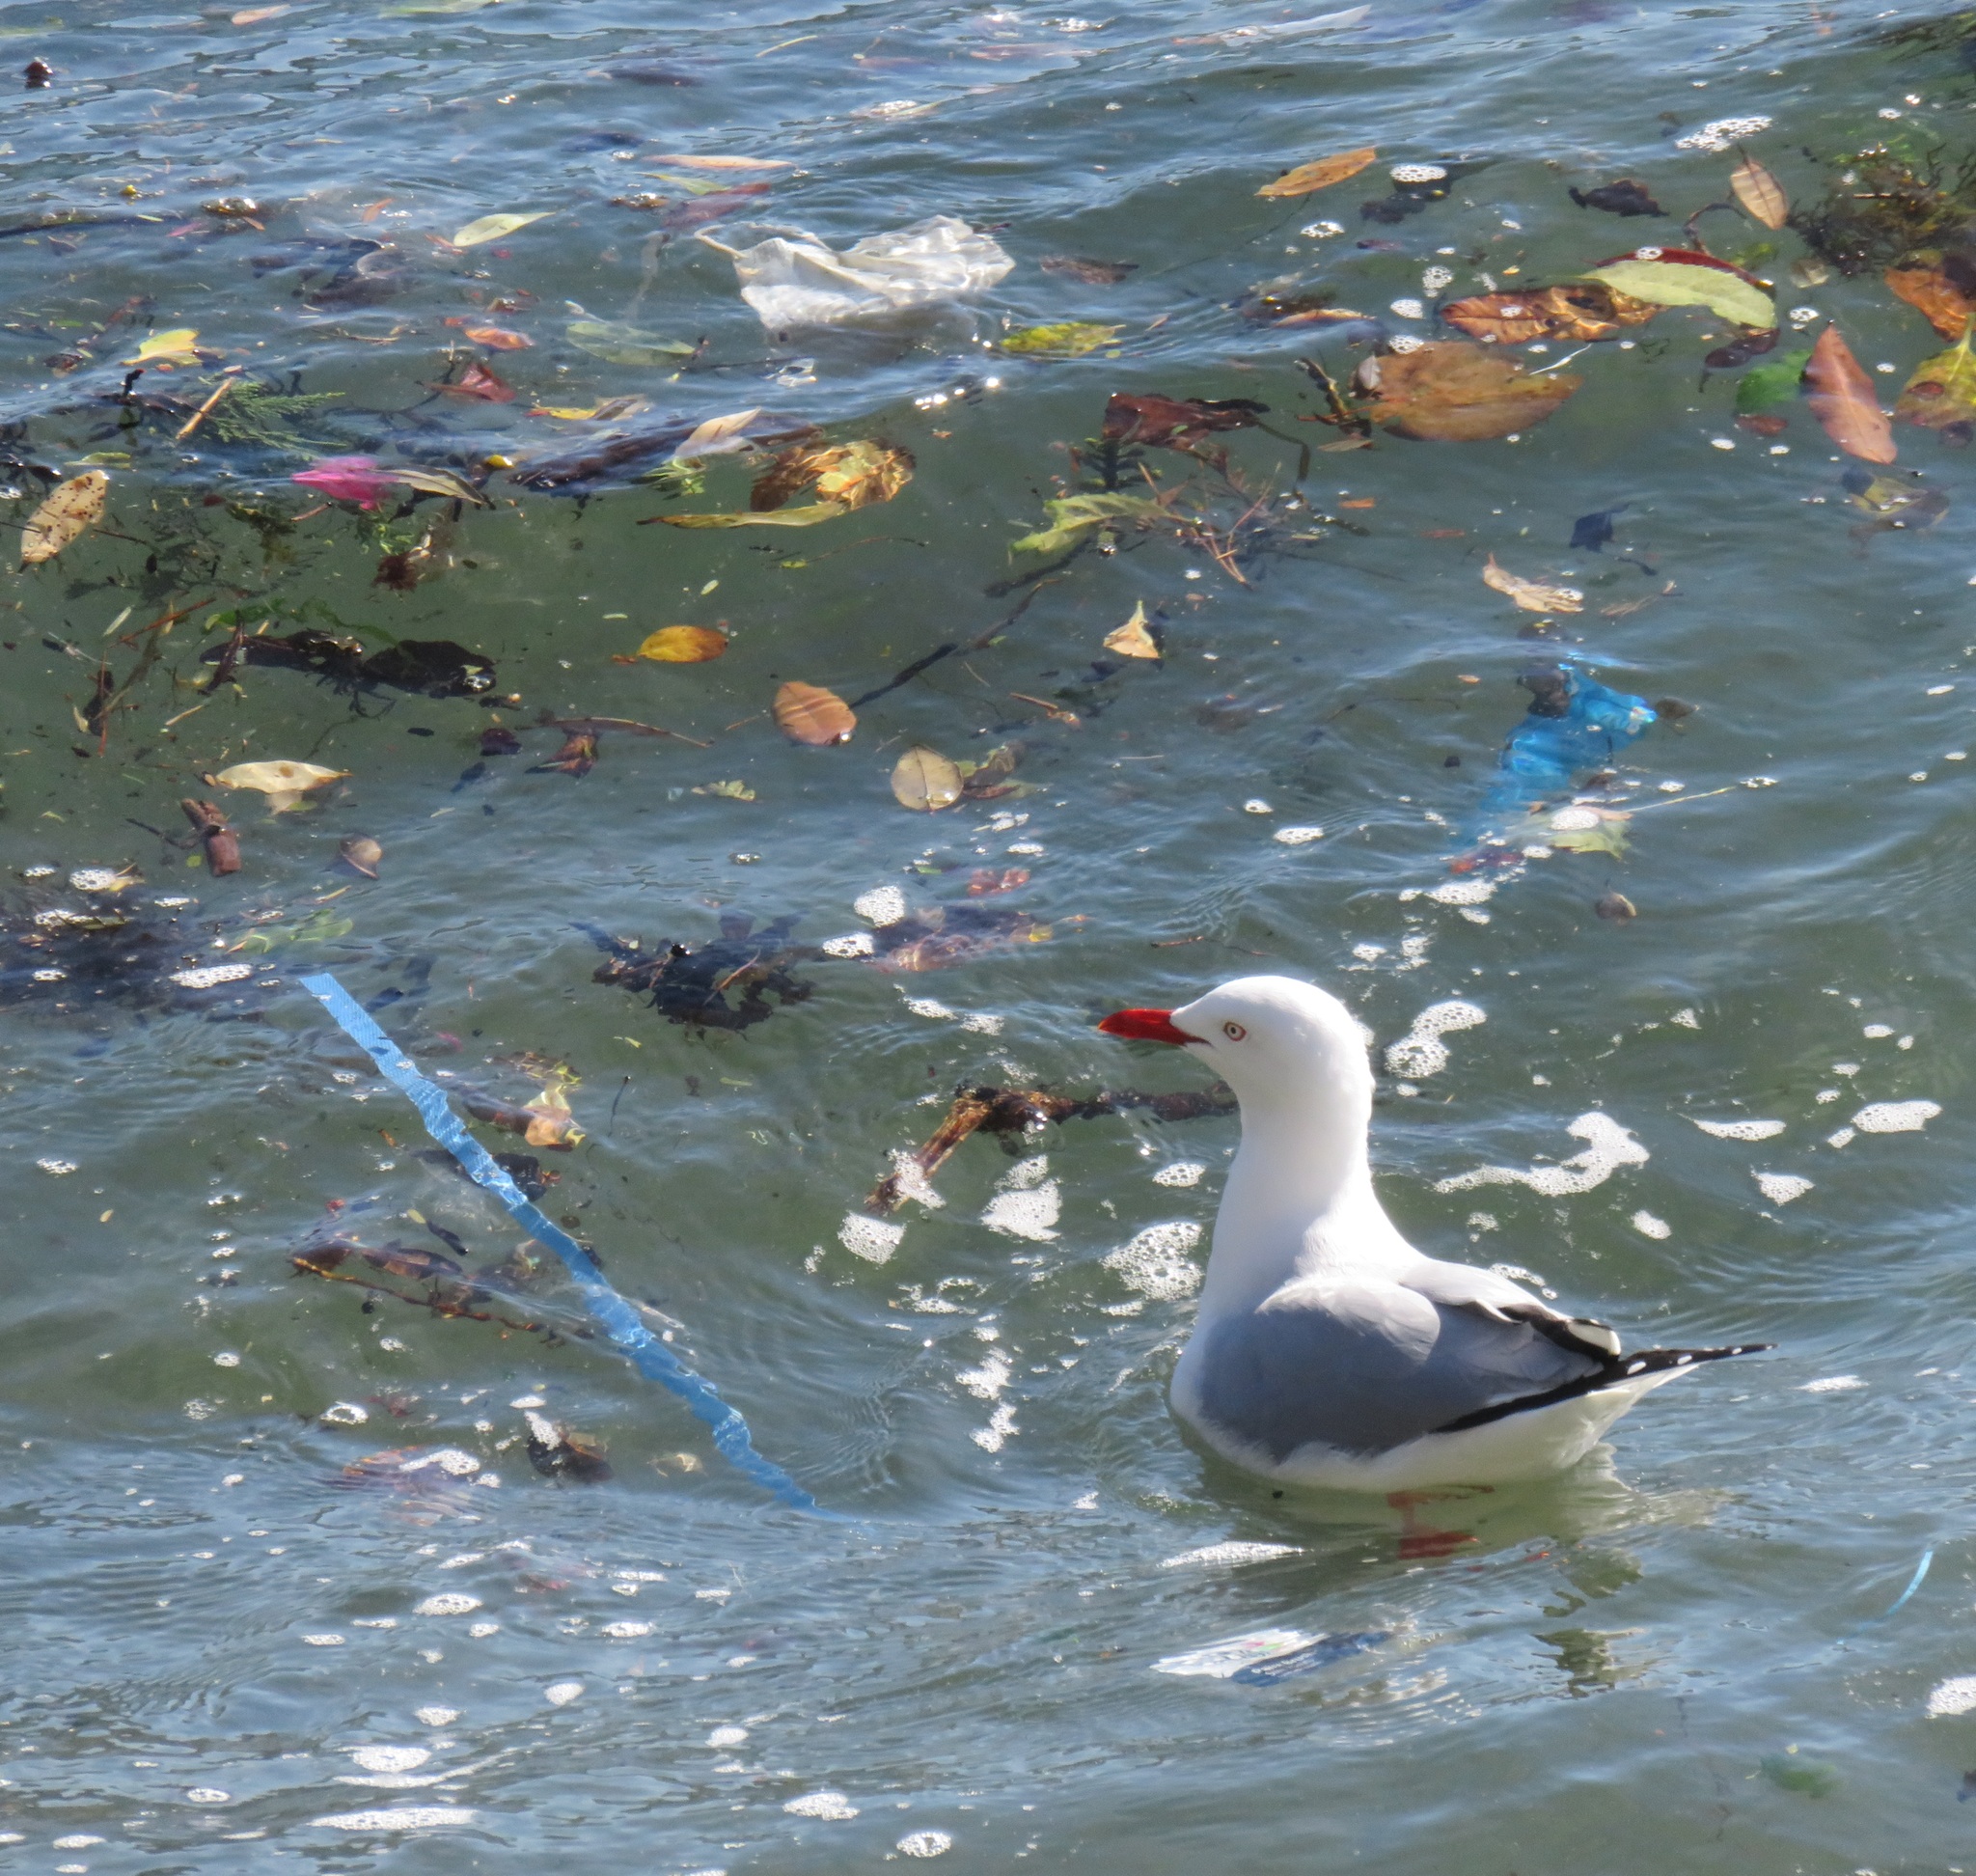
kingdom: Animalia
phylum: Chordata
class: Aves
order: Charadriiformes
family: Laridae
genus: Chroicocephalus
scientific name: Chroicocephalus novaehollandiae
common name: Silver gull
